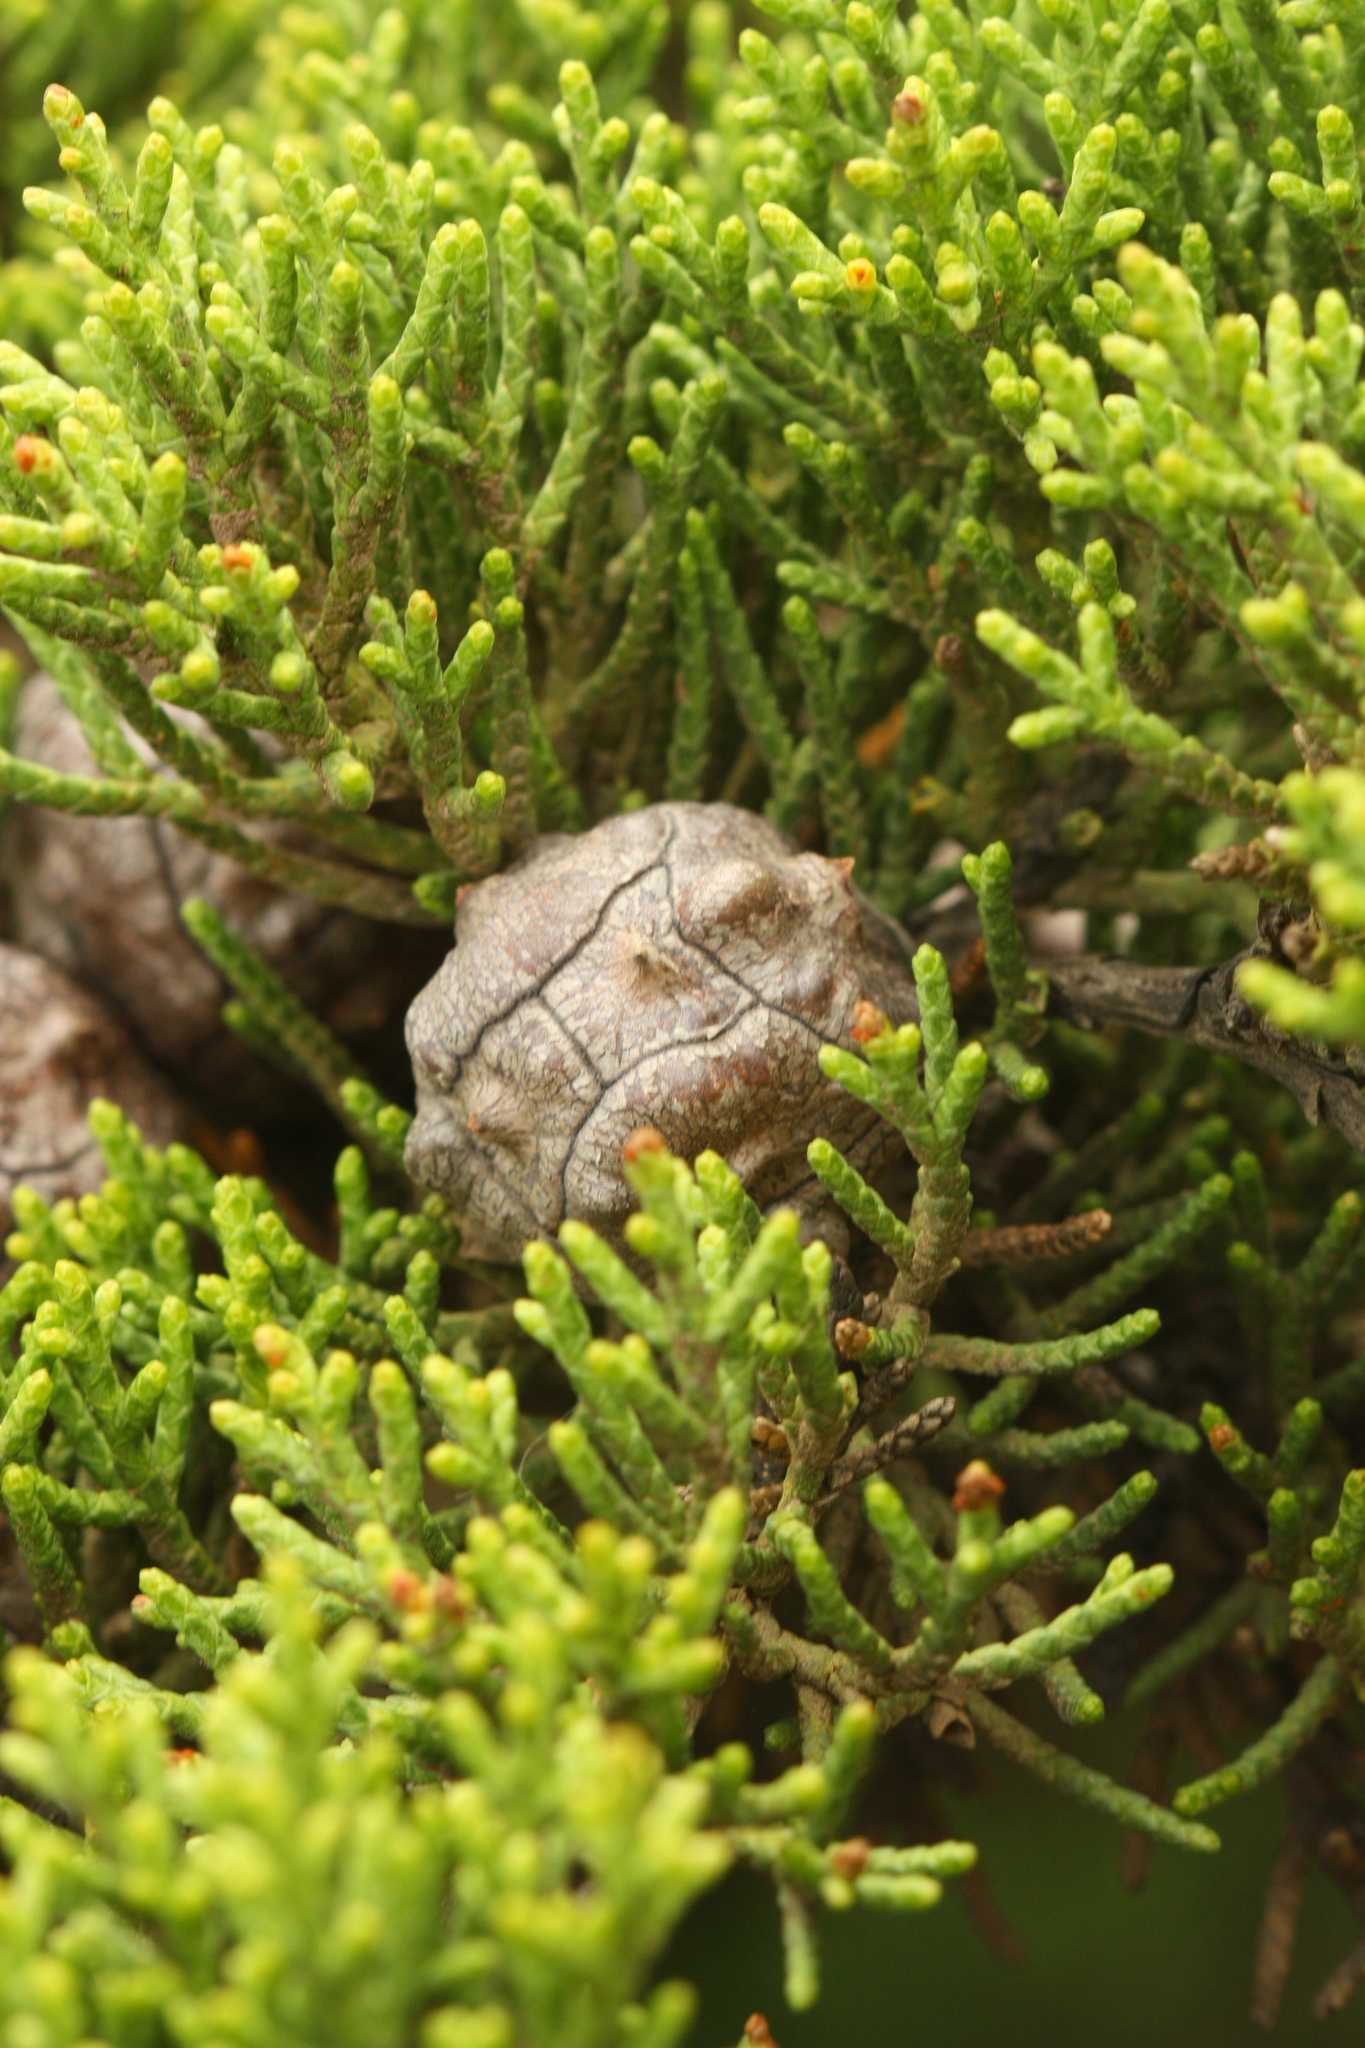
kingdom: Plantae
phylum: Tracheophyta
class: Pinopsida
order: Pinales
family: Cupressaceae
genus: Cupressus
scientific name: Cupressus macrocarpa
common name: Monterey cypress
